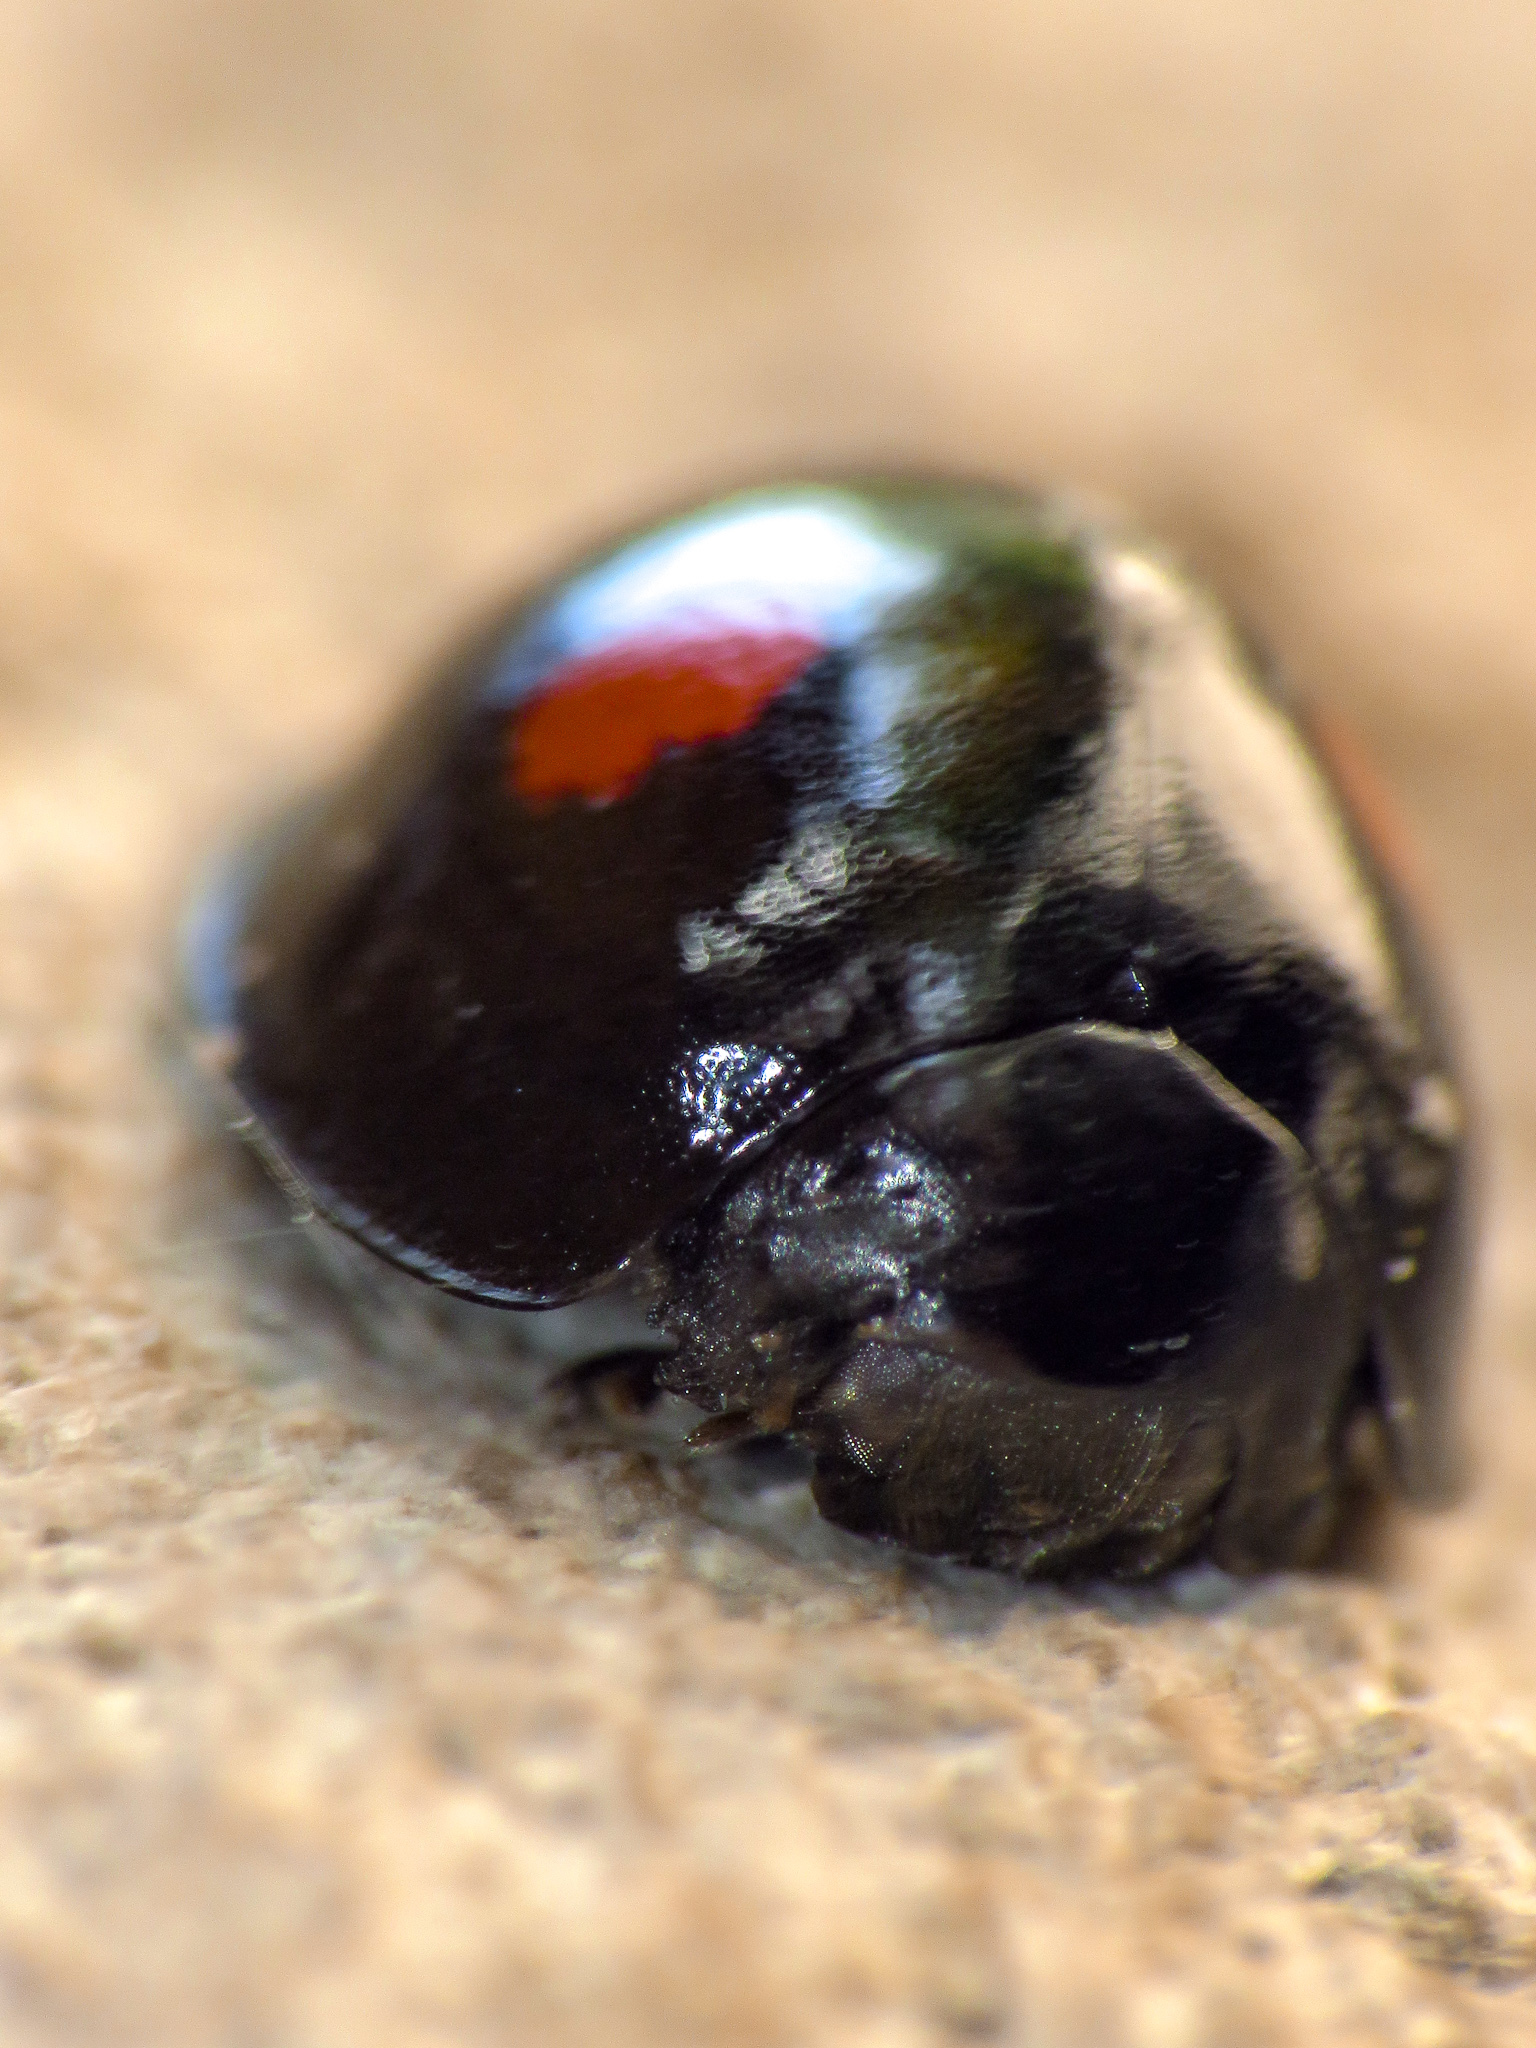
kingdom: Animalia
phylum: Arthropoda
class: Insecta
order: Coleoptera
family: Coccinellidae
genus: Chilocorus
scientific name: Chilocorus stigma
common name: Twicestabbed lady beetle
